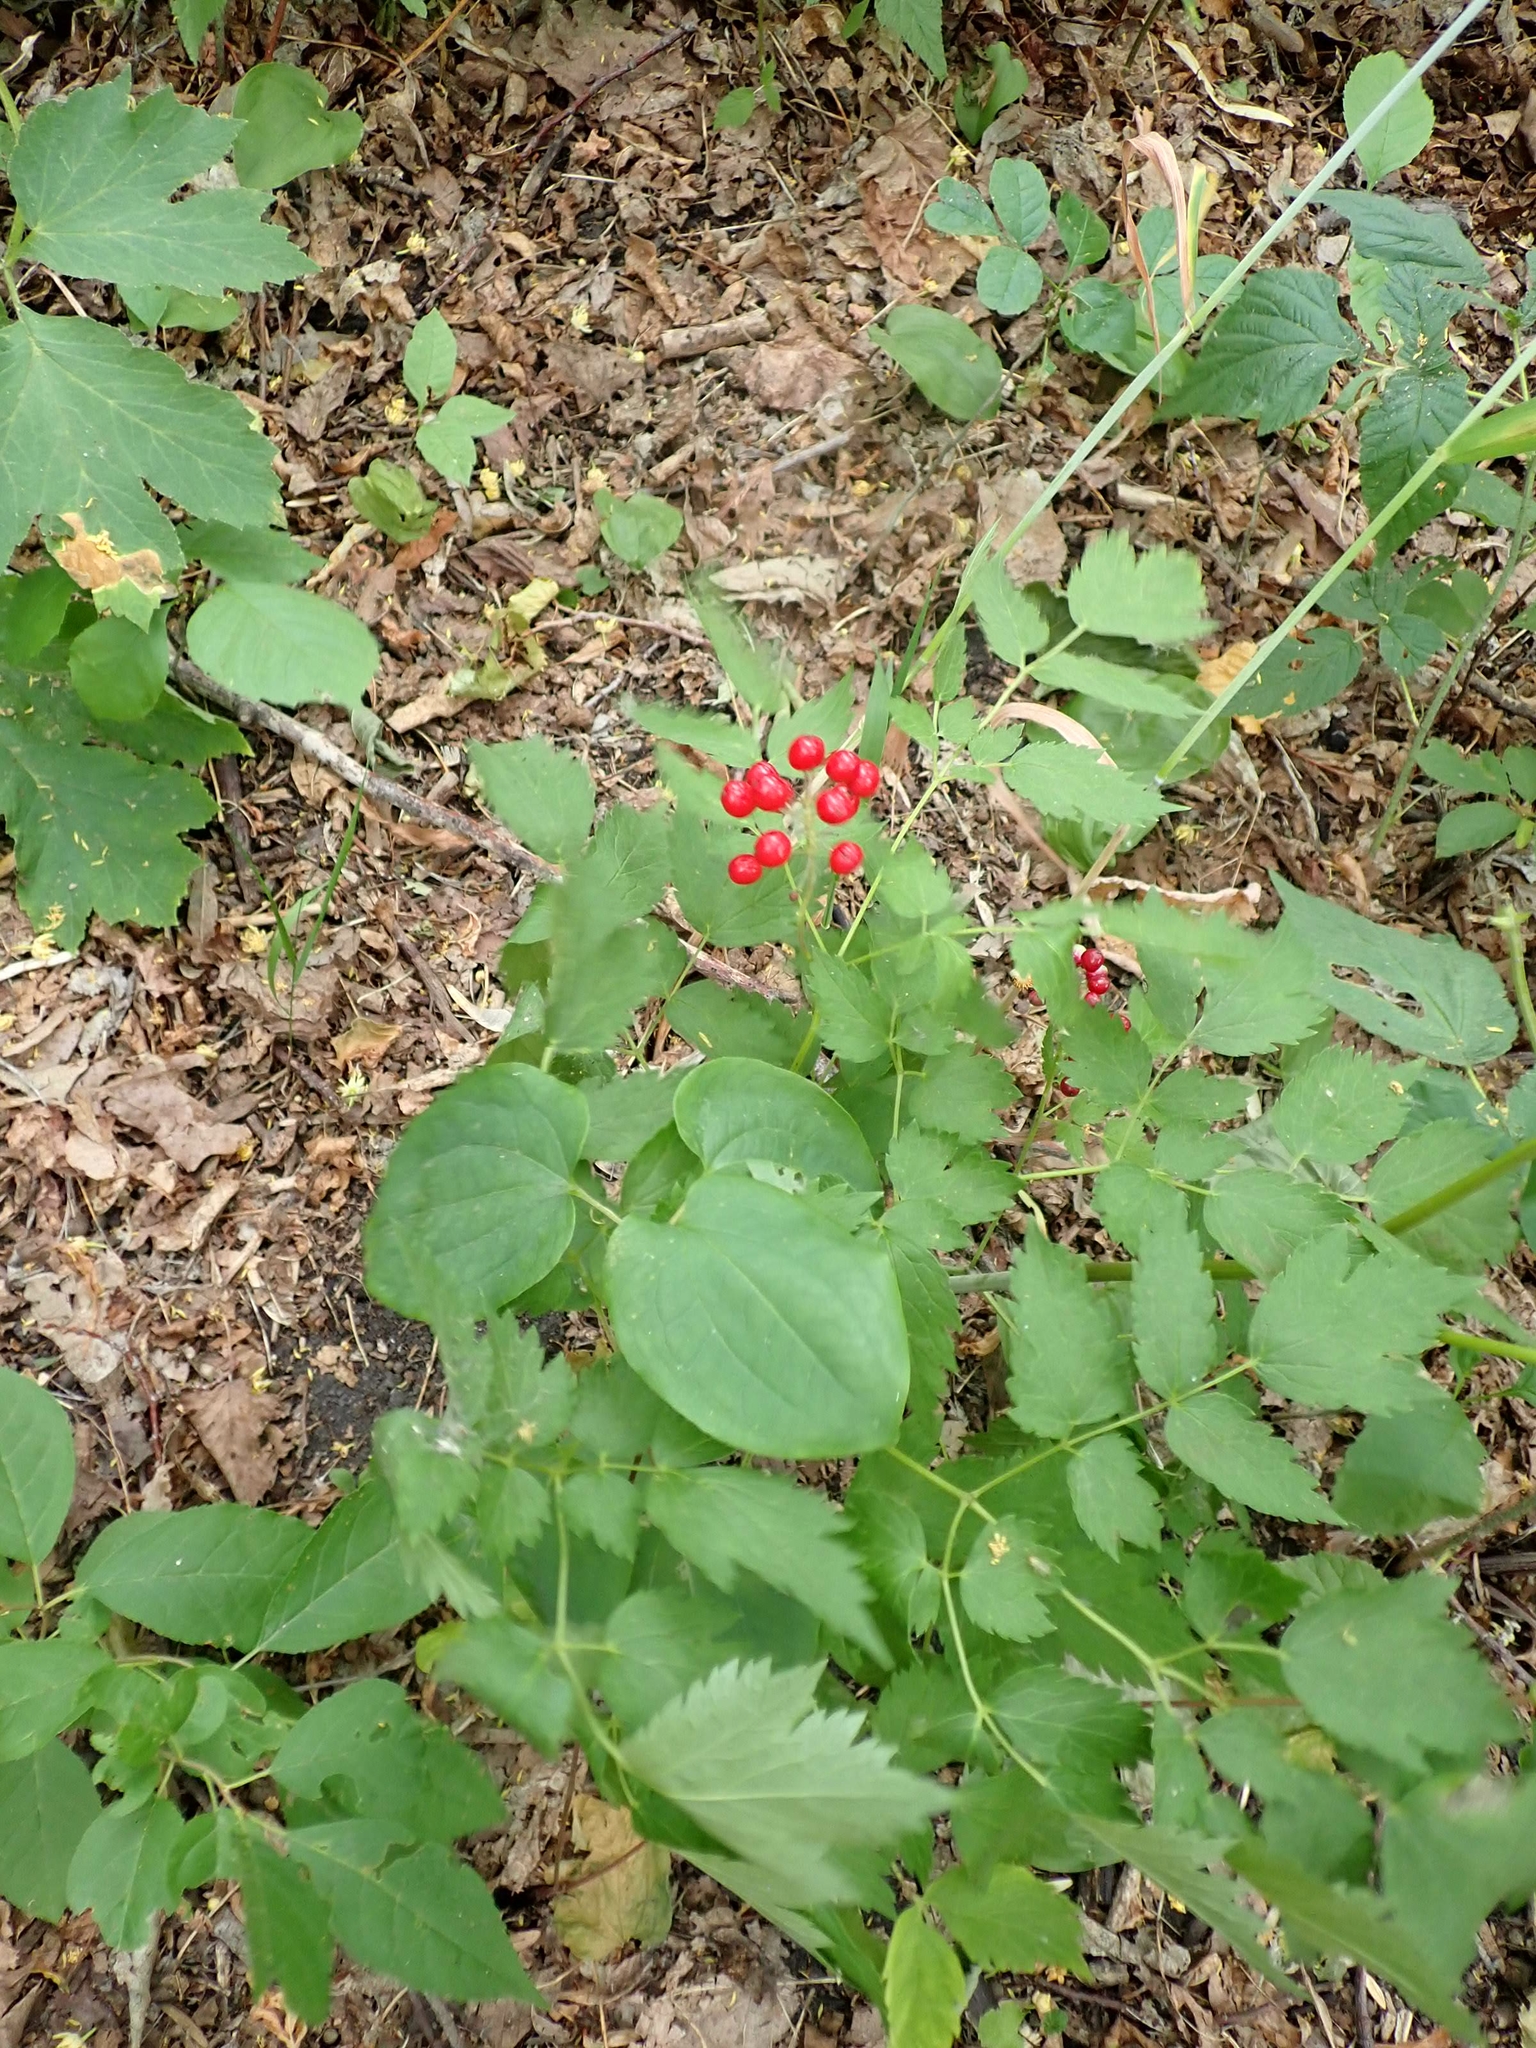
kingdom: Plantae
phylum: Tracheophyta
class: Magnoliopsida
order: Ranunculales
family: Ranunculaceae
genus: Actaea
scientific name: Actaea rubra
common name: Red baneberry
